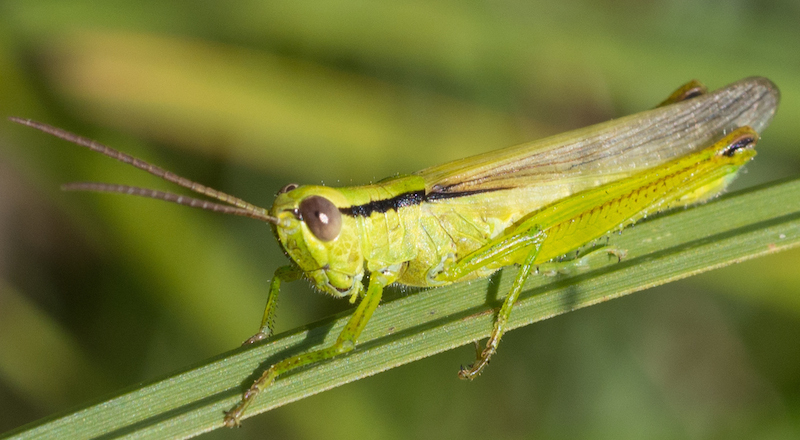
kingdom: Animalia
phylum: Arthropoda
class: Insecta
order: Orthoptera
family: Acrididae
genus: Mecostethus
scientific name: Mecostethus parapleurus
